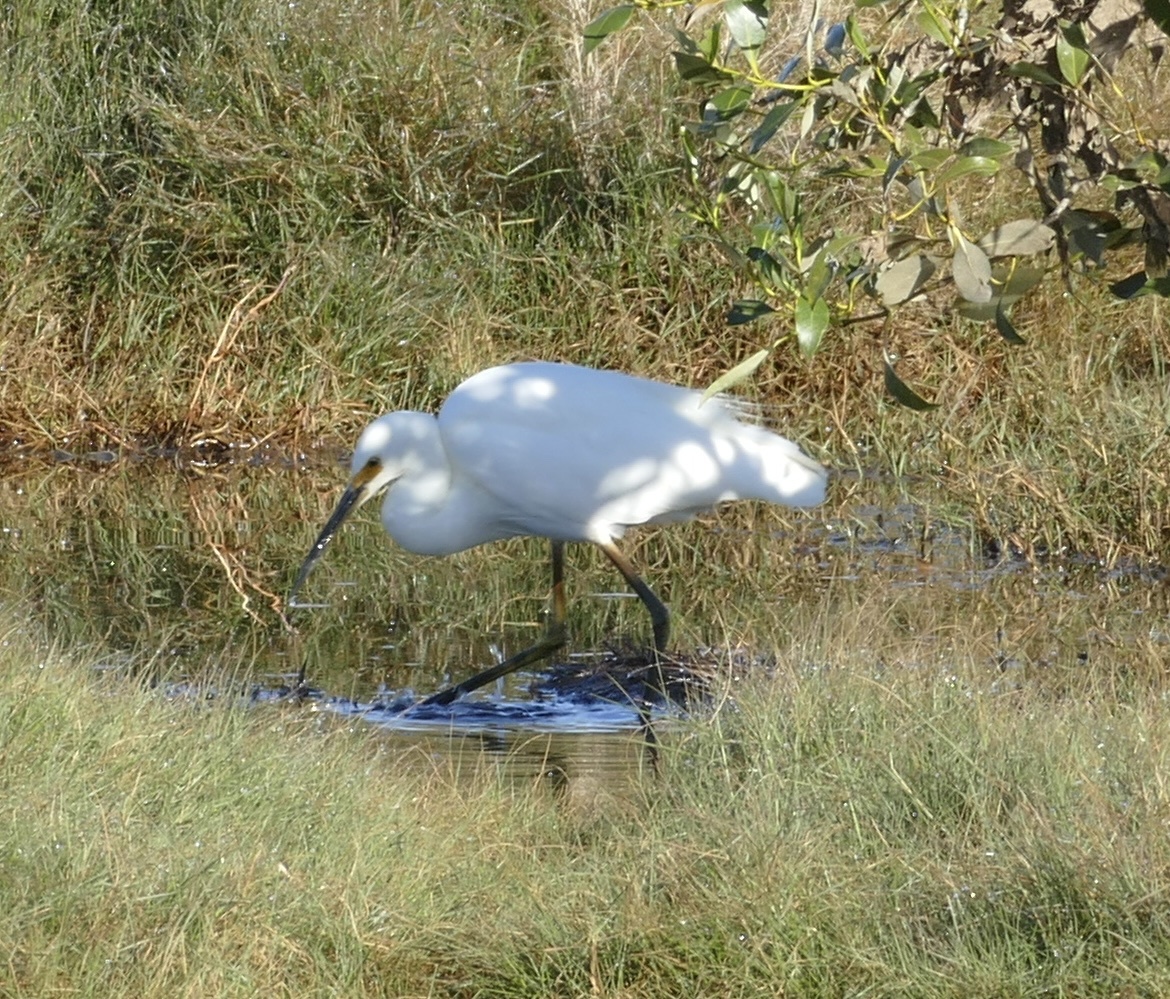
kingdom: Animalia
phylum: Chordata
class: Aves
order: Pelecaniformes
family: Ardeidae
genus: Egretta
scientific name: Egretta garzetta
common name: Little egret
